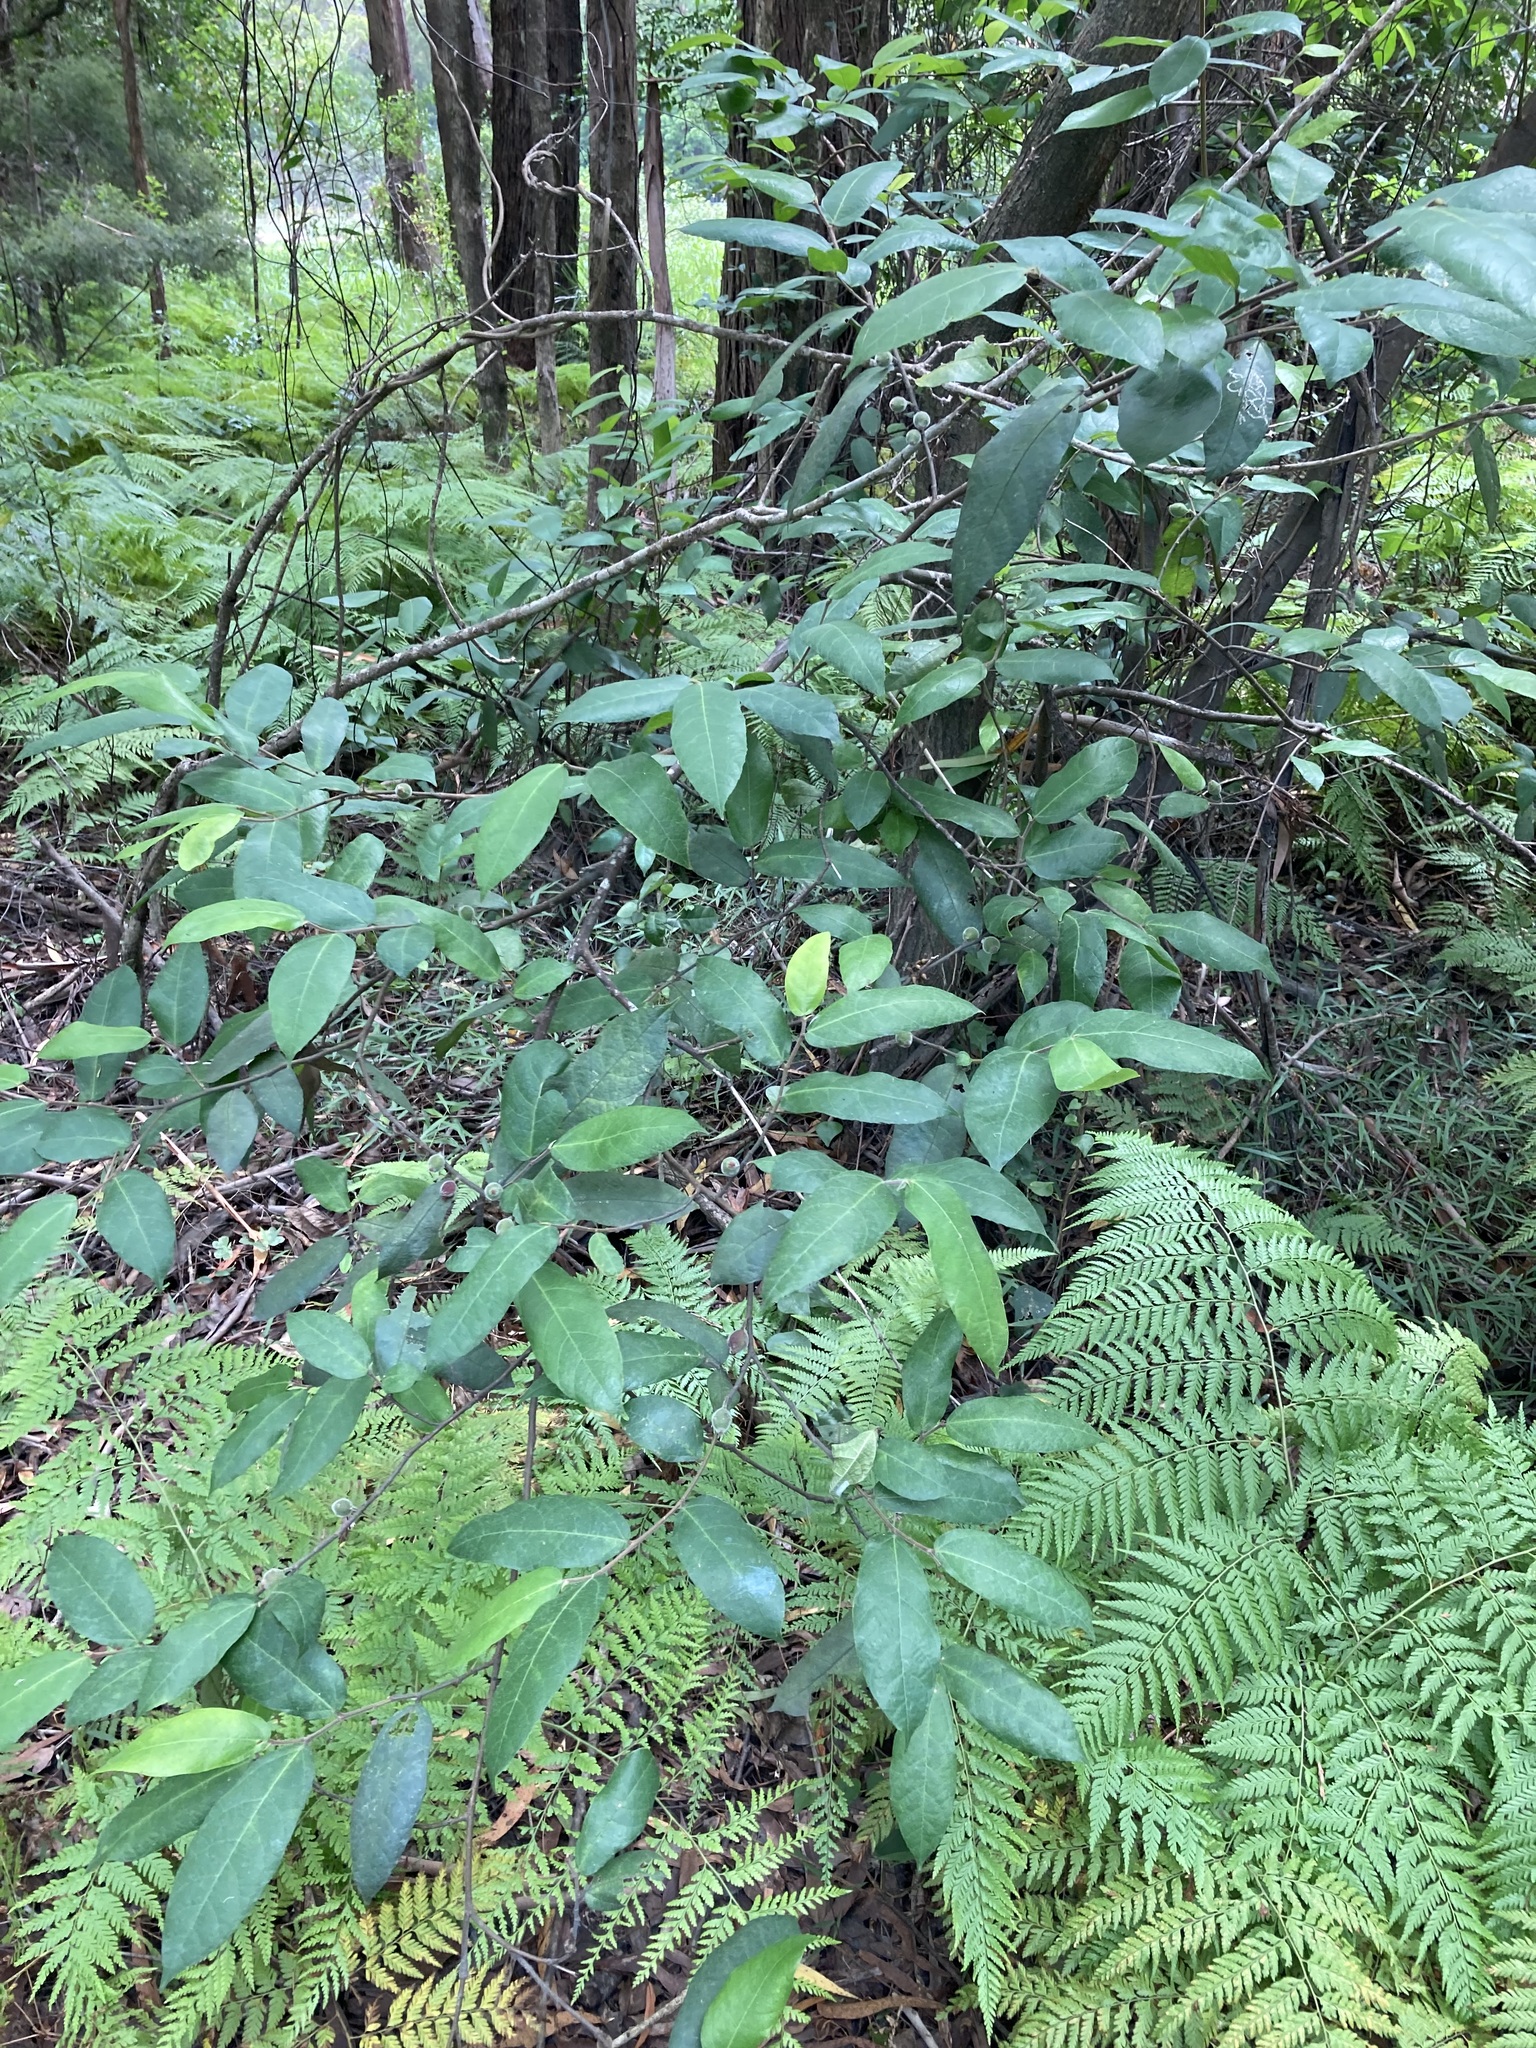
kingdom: Plantae
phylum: Tracheophyta
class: Magnoliopsida
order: Rosales
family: Moraceae
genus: Ficus
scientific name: Ficus coronata
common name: Creek sandpaper fig
